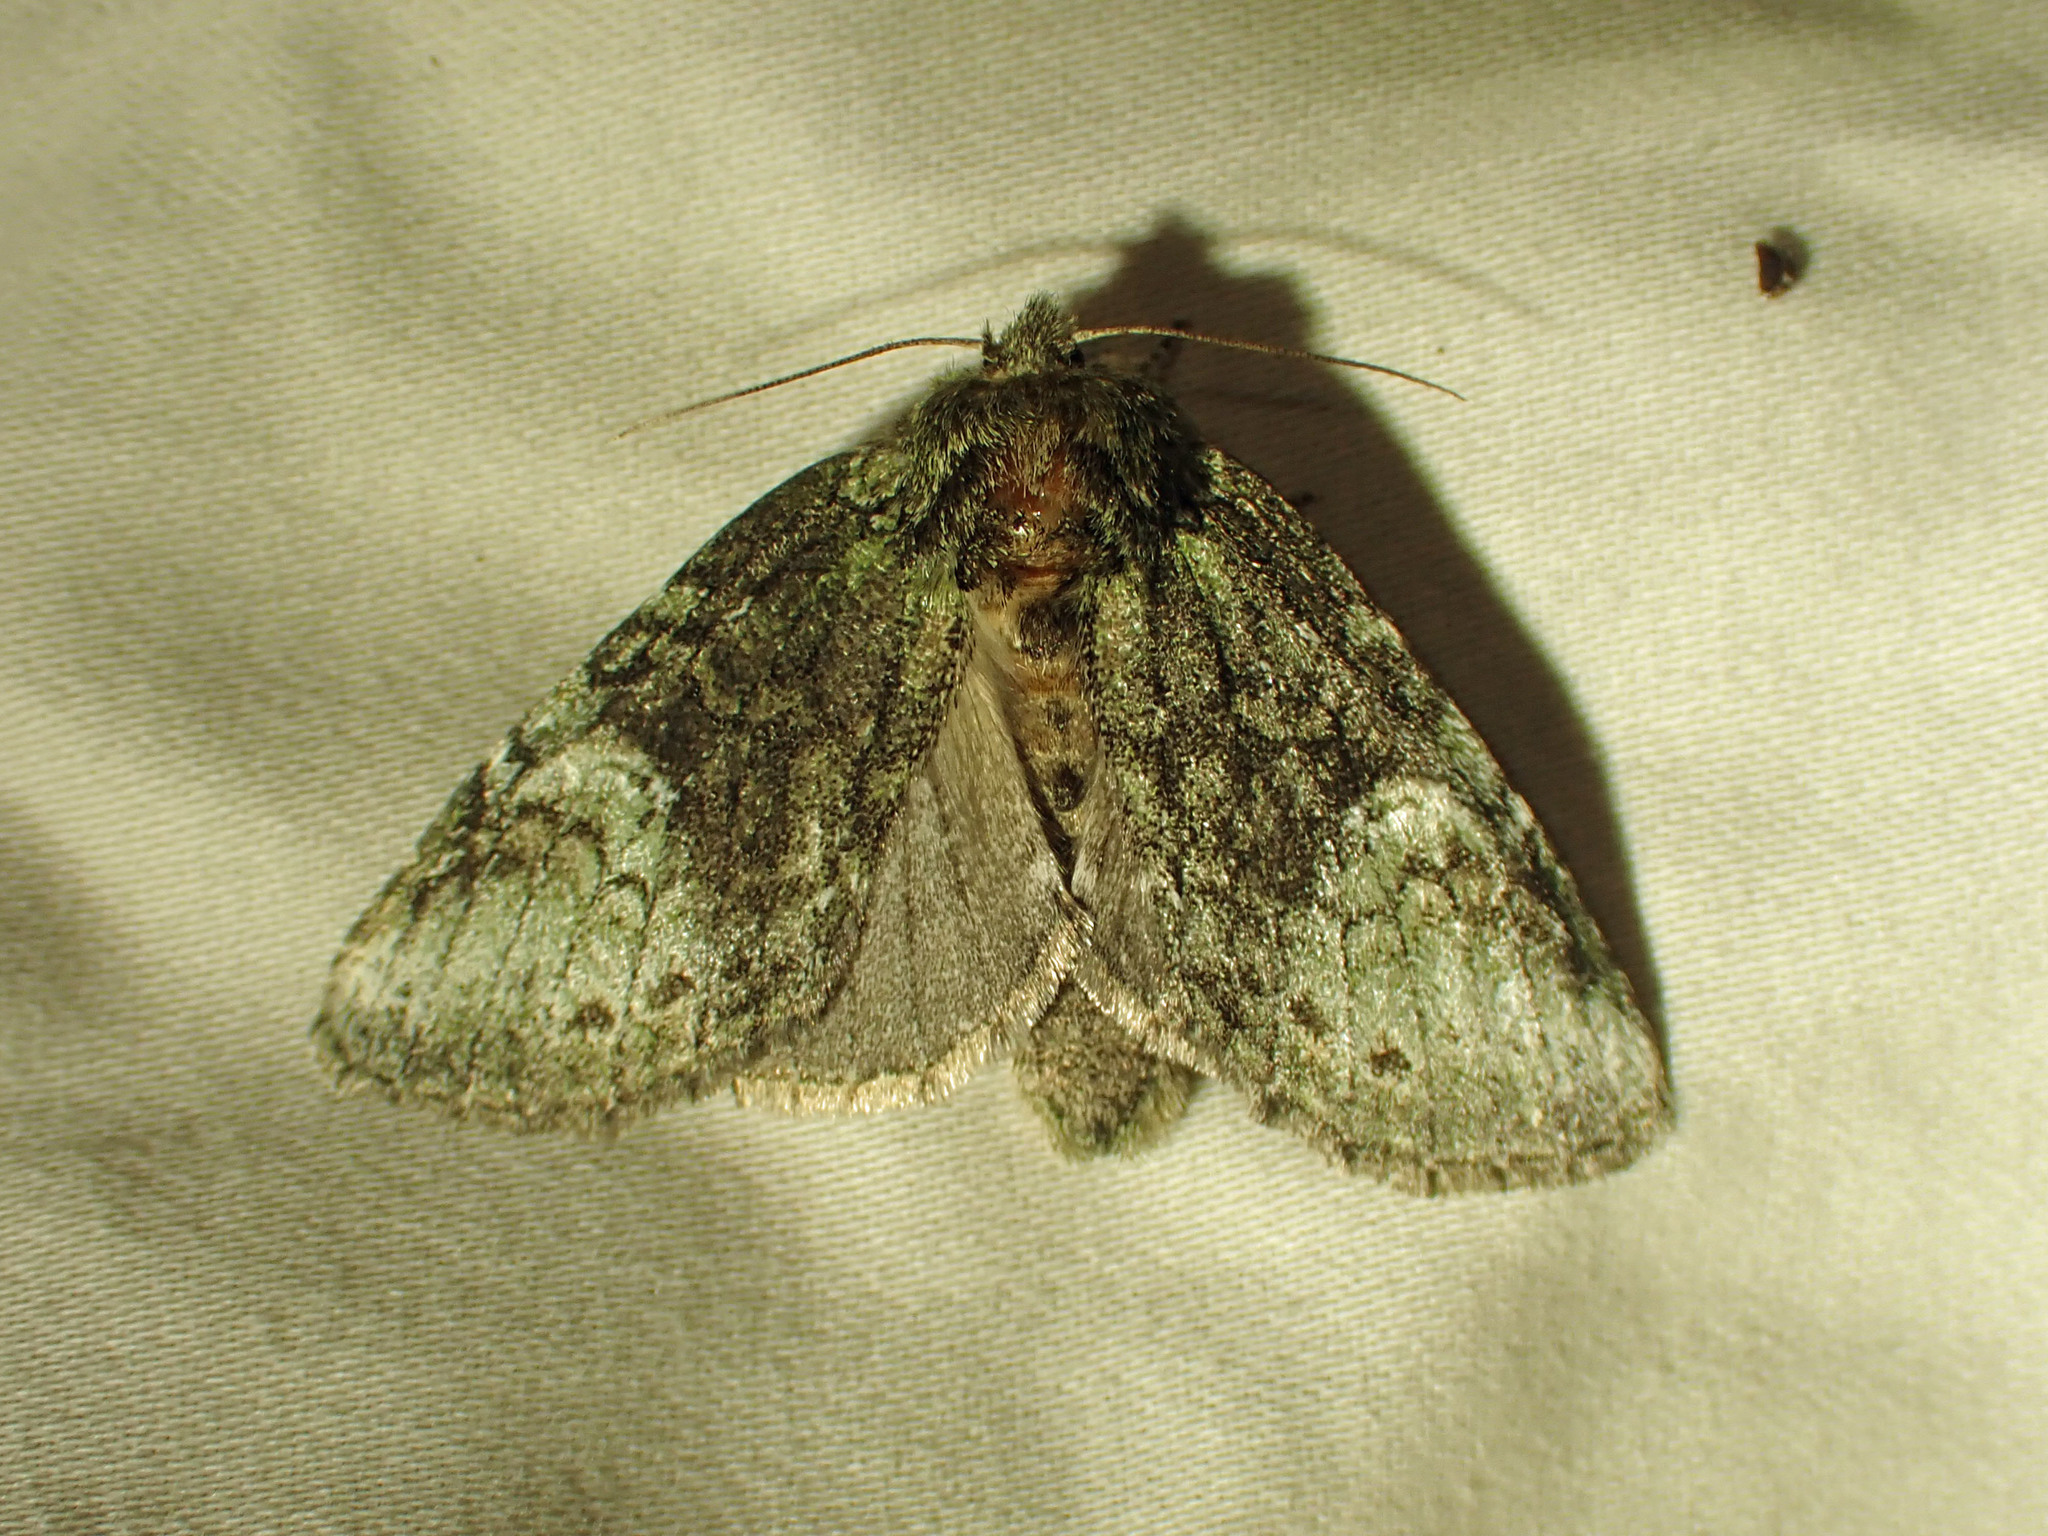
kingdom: Animalia
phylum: Arthropoda
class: Insecta
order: Lepidoptera
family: Notodontidae
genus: Disphragis
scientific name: Disphragis Cecrita guttivitta
